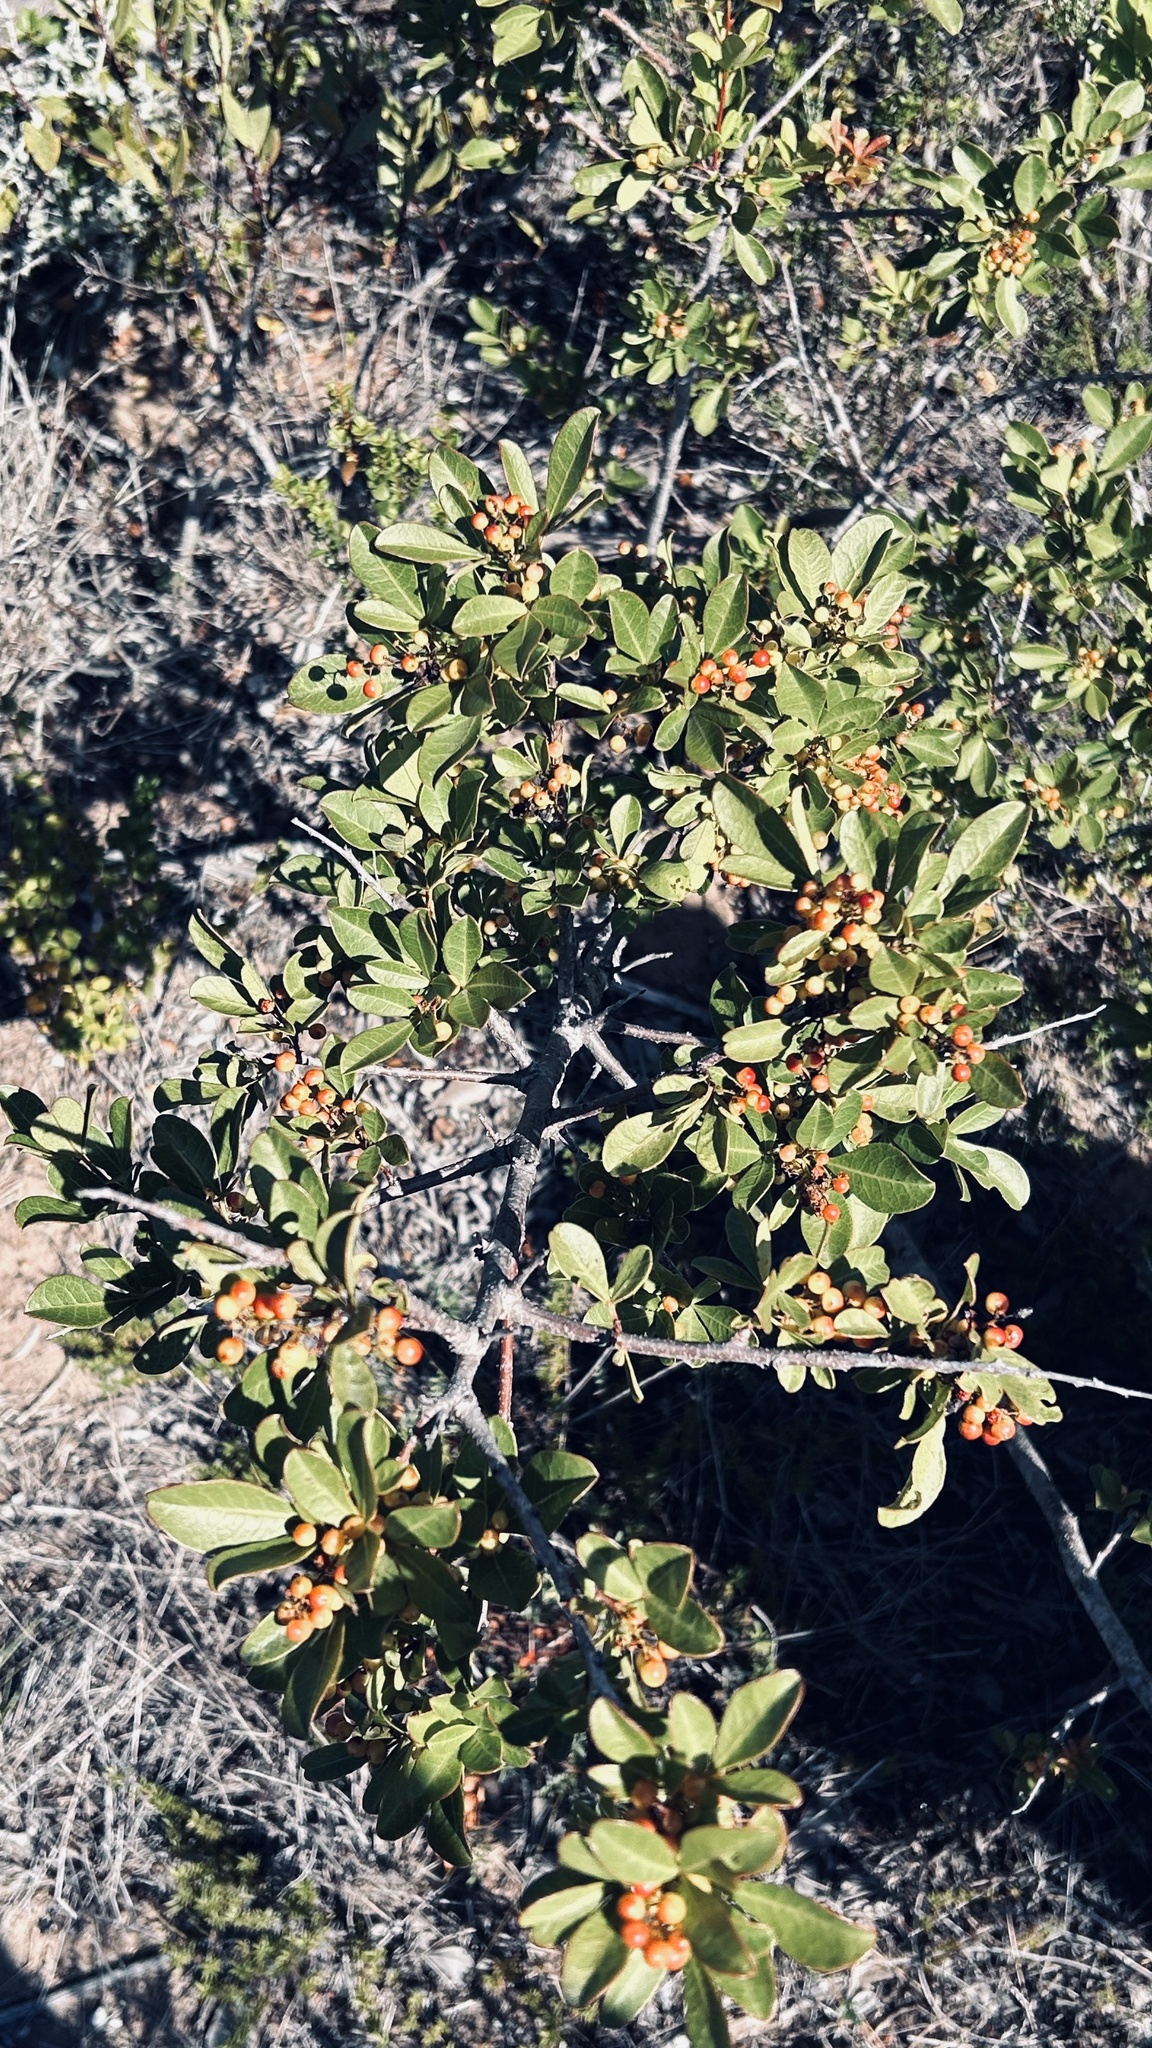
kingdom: Plantae
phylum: Tracheophyta
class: Magnoliopsida
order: Sapindales
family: Anacardiaceae
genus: Searsia
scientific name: Searsia laevigata
